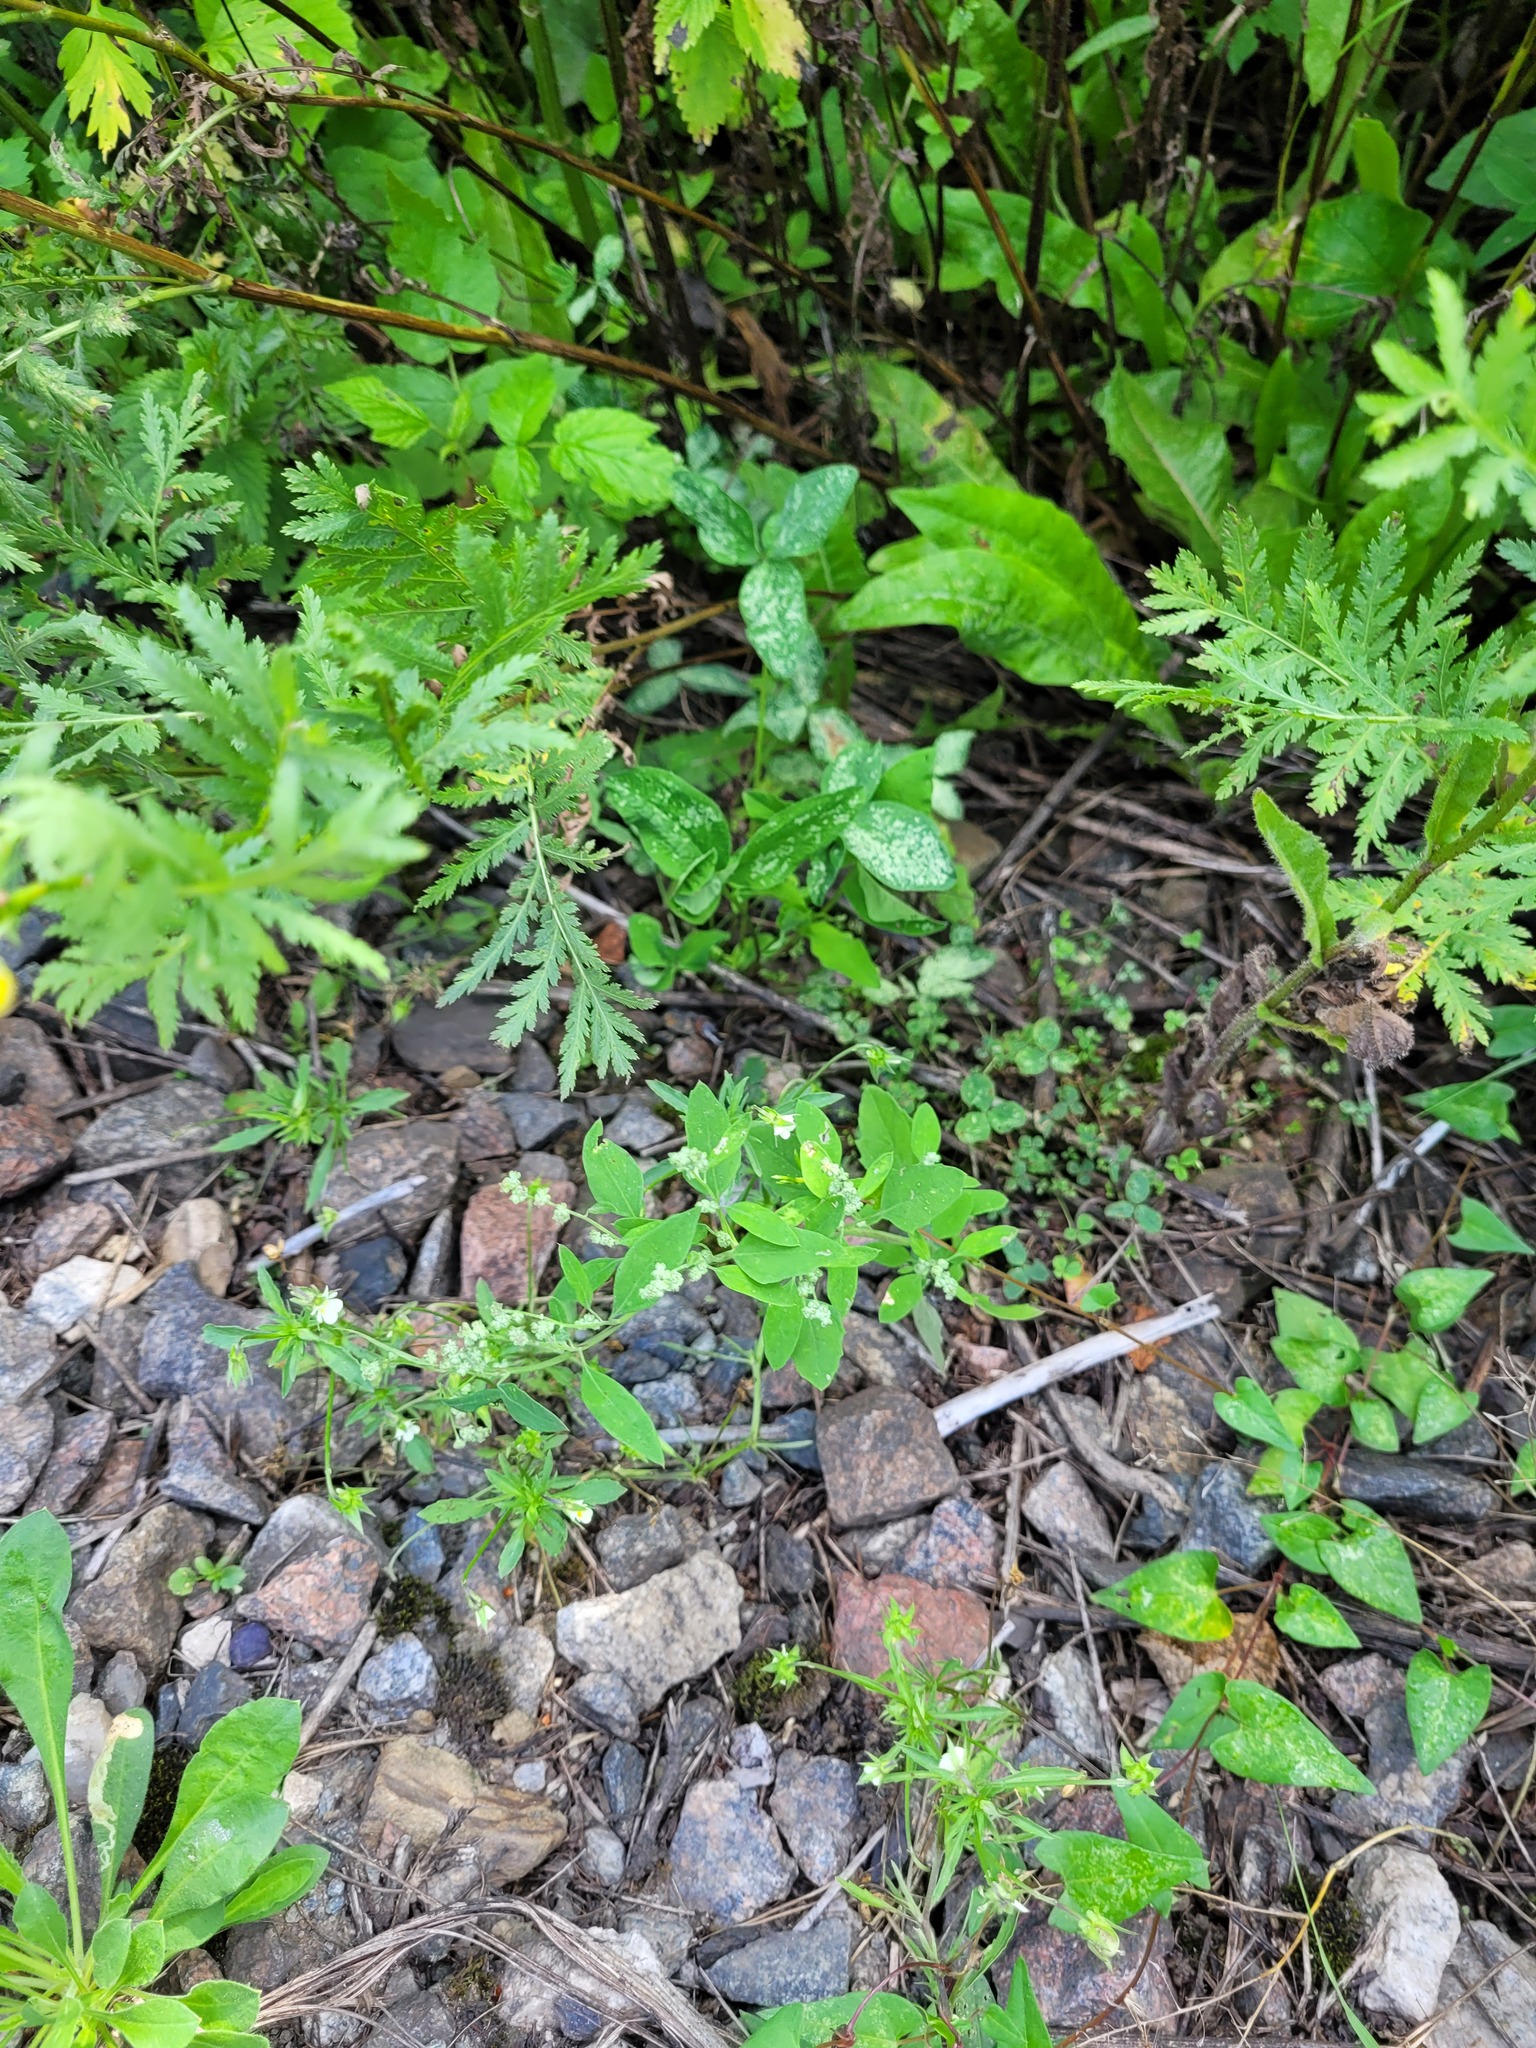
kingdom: Plantae
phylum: Tracheophyta
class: Magnoliopsida
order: Caryophyllales
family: Amaranthaceae
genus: Chenopodium
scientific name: Chenopodium album
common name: Fat-hen
